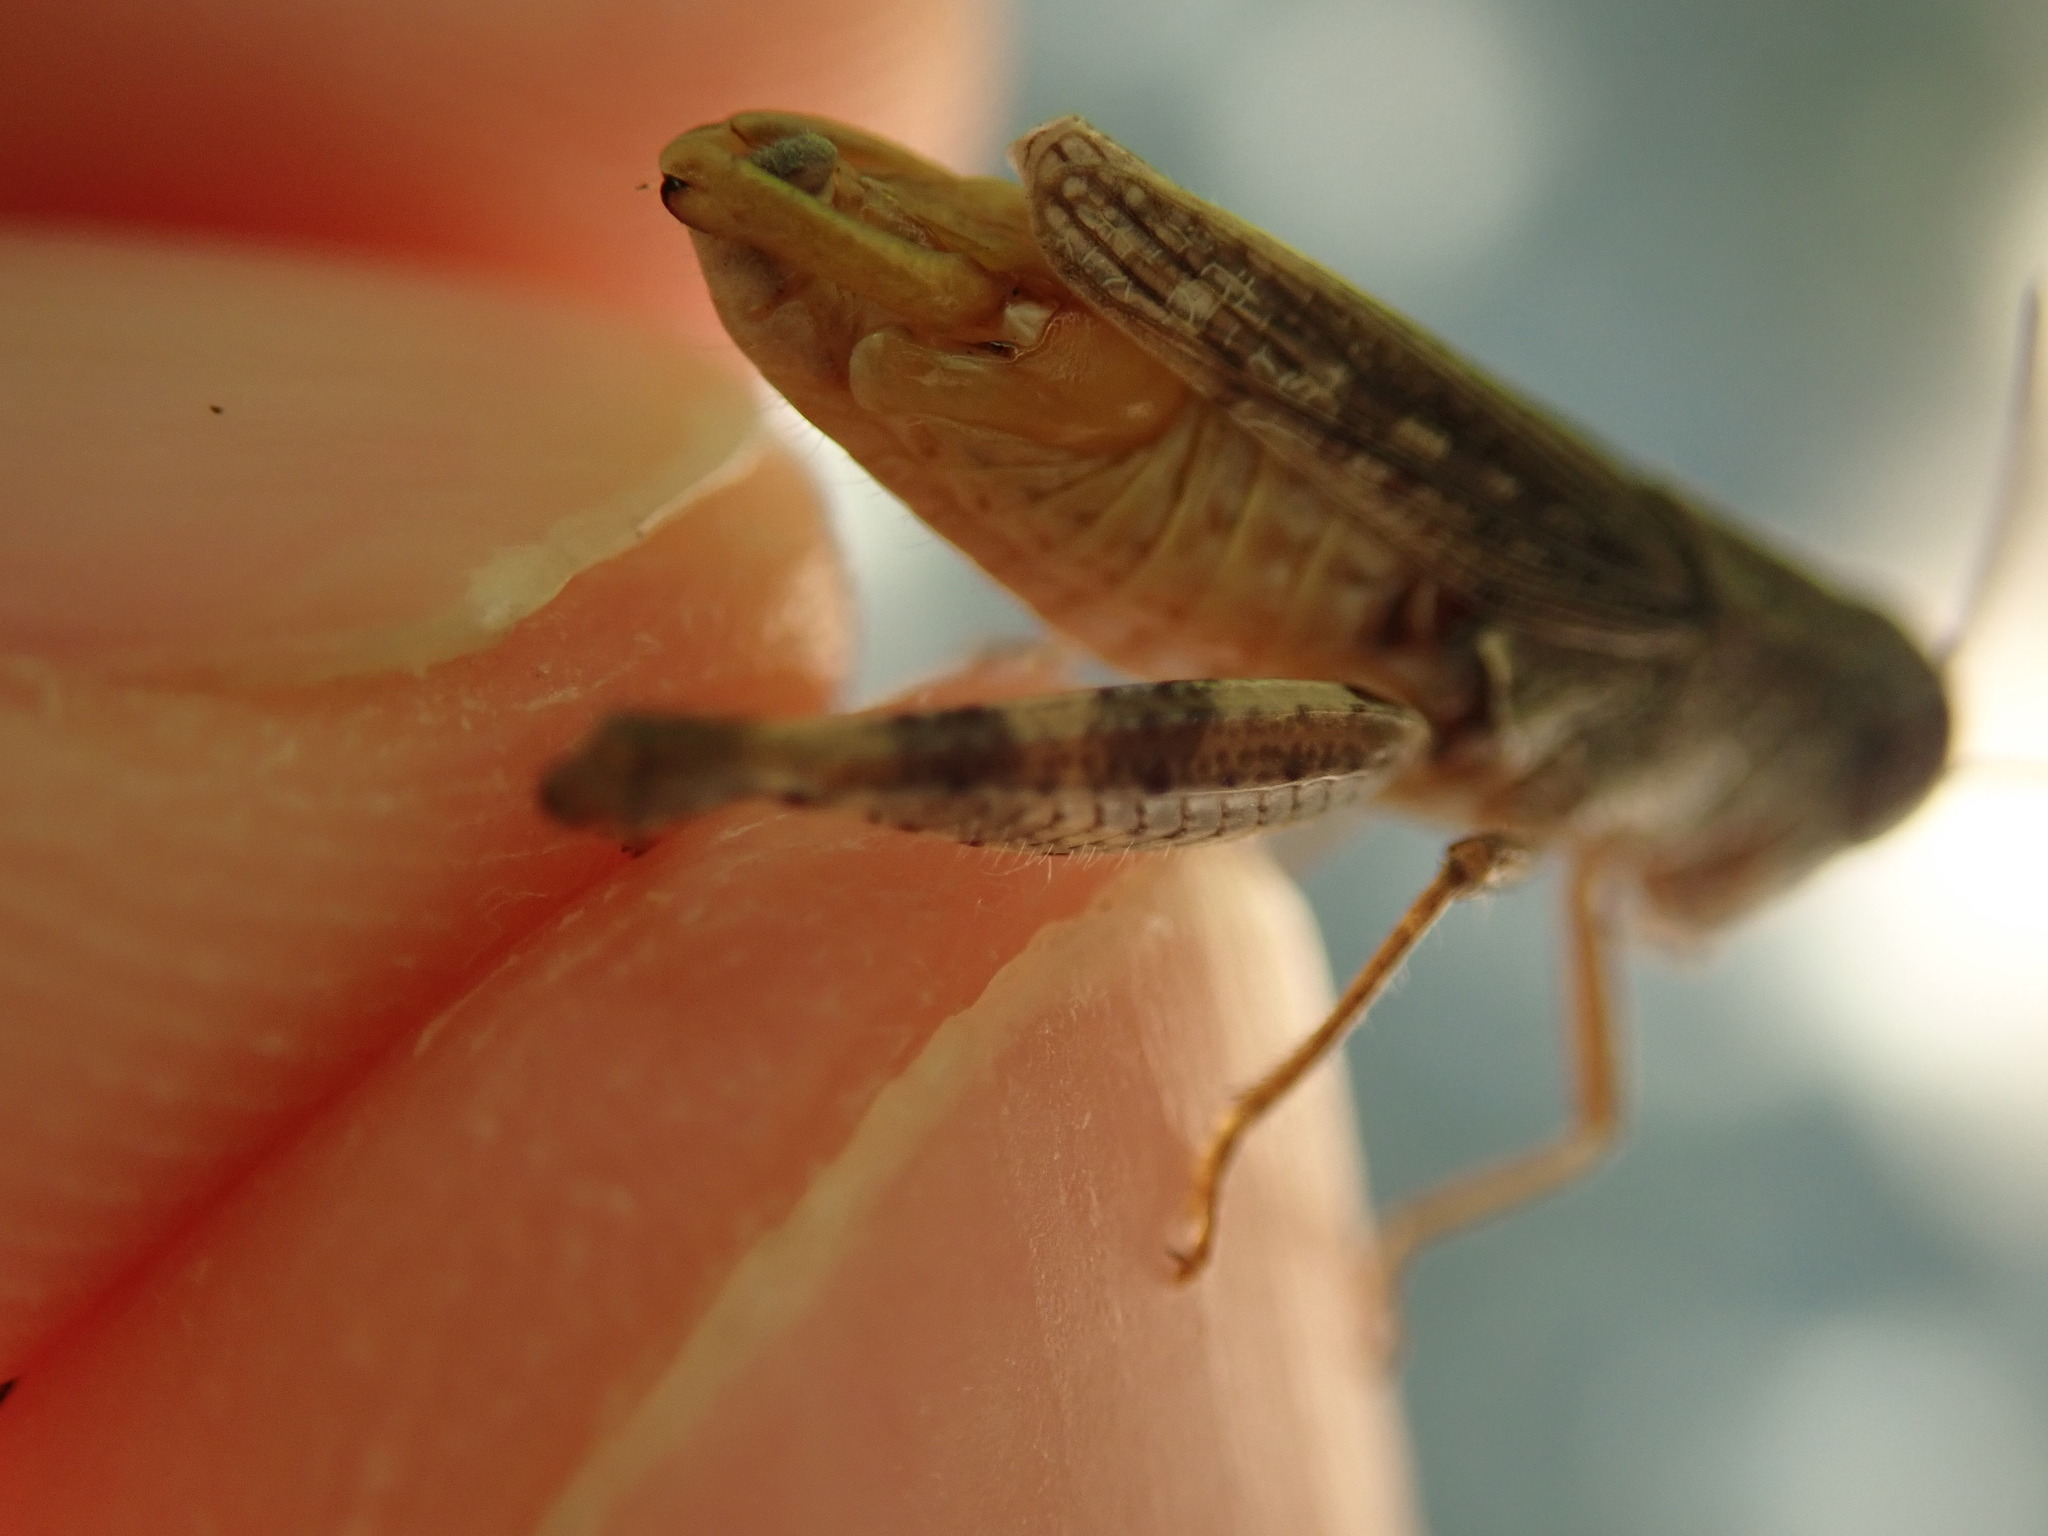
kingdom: Animalia
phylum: Arthropoda
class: Insecta
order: Orthoptera
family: Acrididae
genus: Calliptamus
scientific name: Calliptamus siciliae
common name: Pygmy pincer grasshopper
